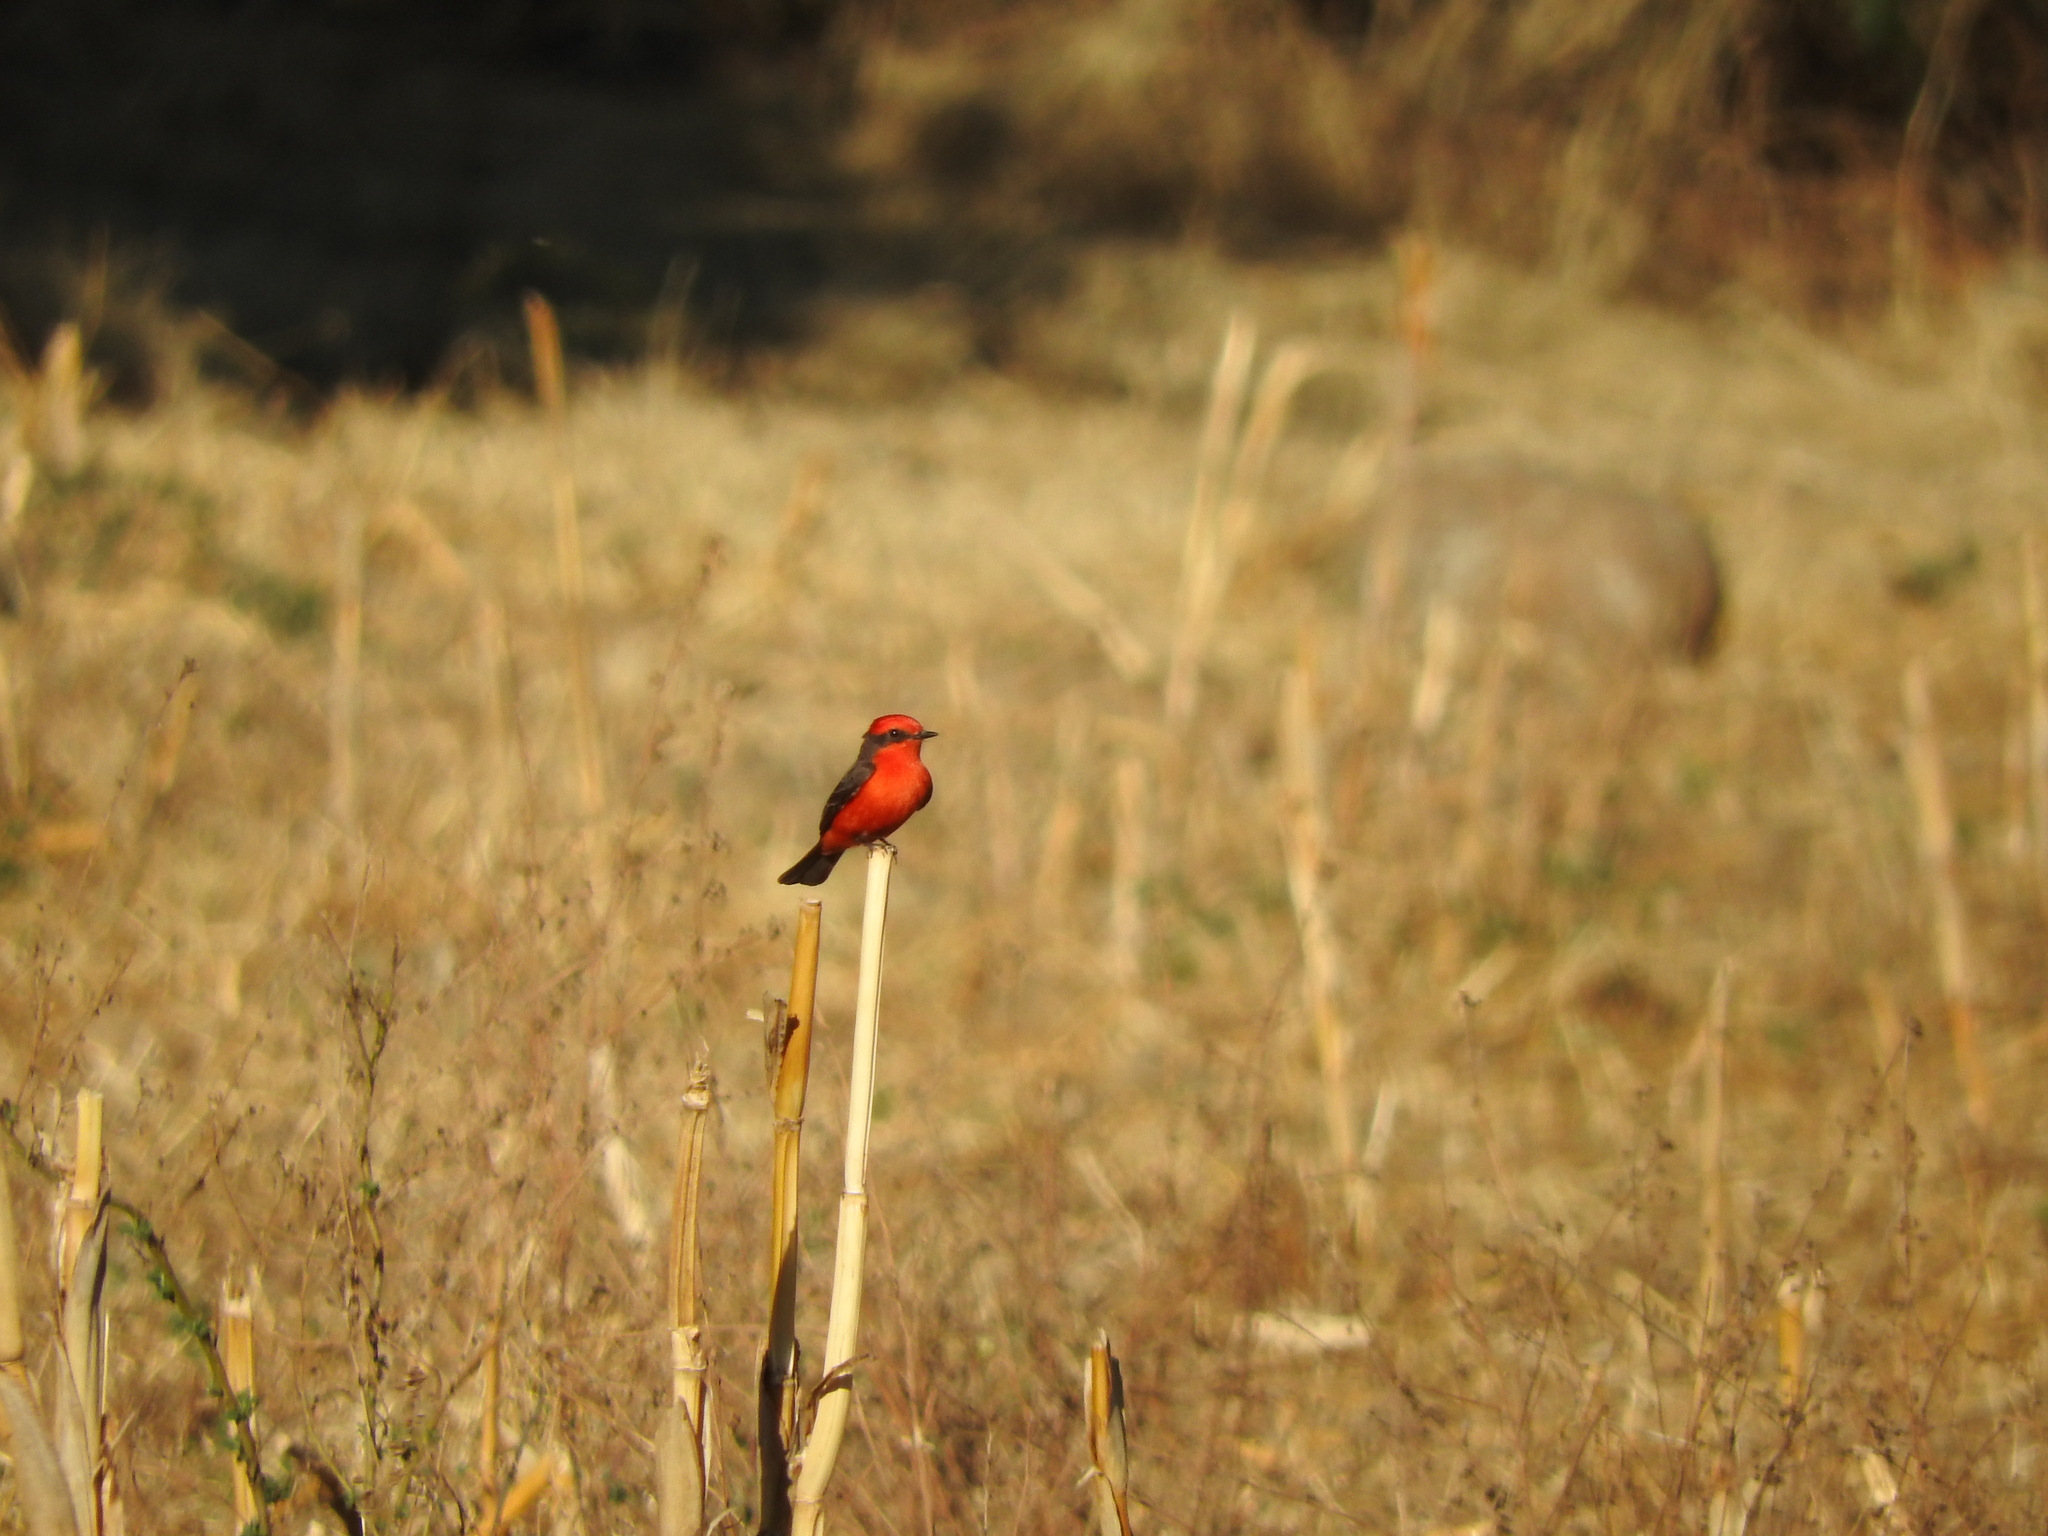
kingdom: Animalia
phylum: Chordata
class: Aves
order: Passeriformes
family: Tyrannidae
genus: Pyrocephalus
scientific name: Pyrocephalus rubinus
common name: Vermilion flycatcher
